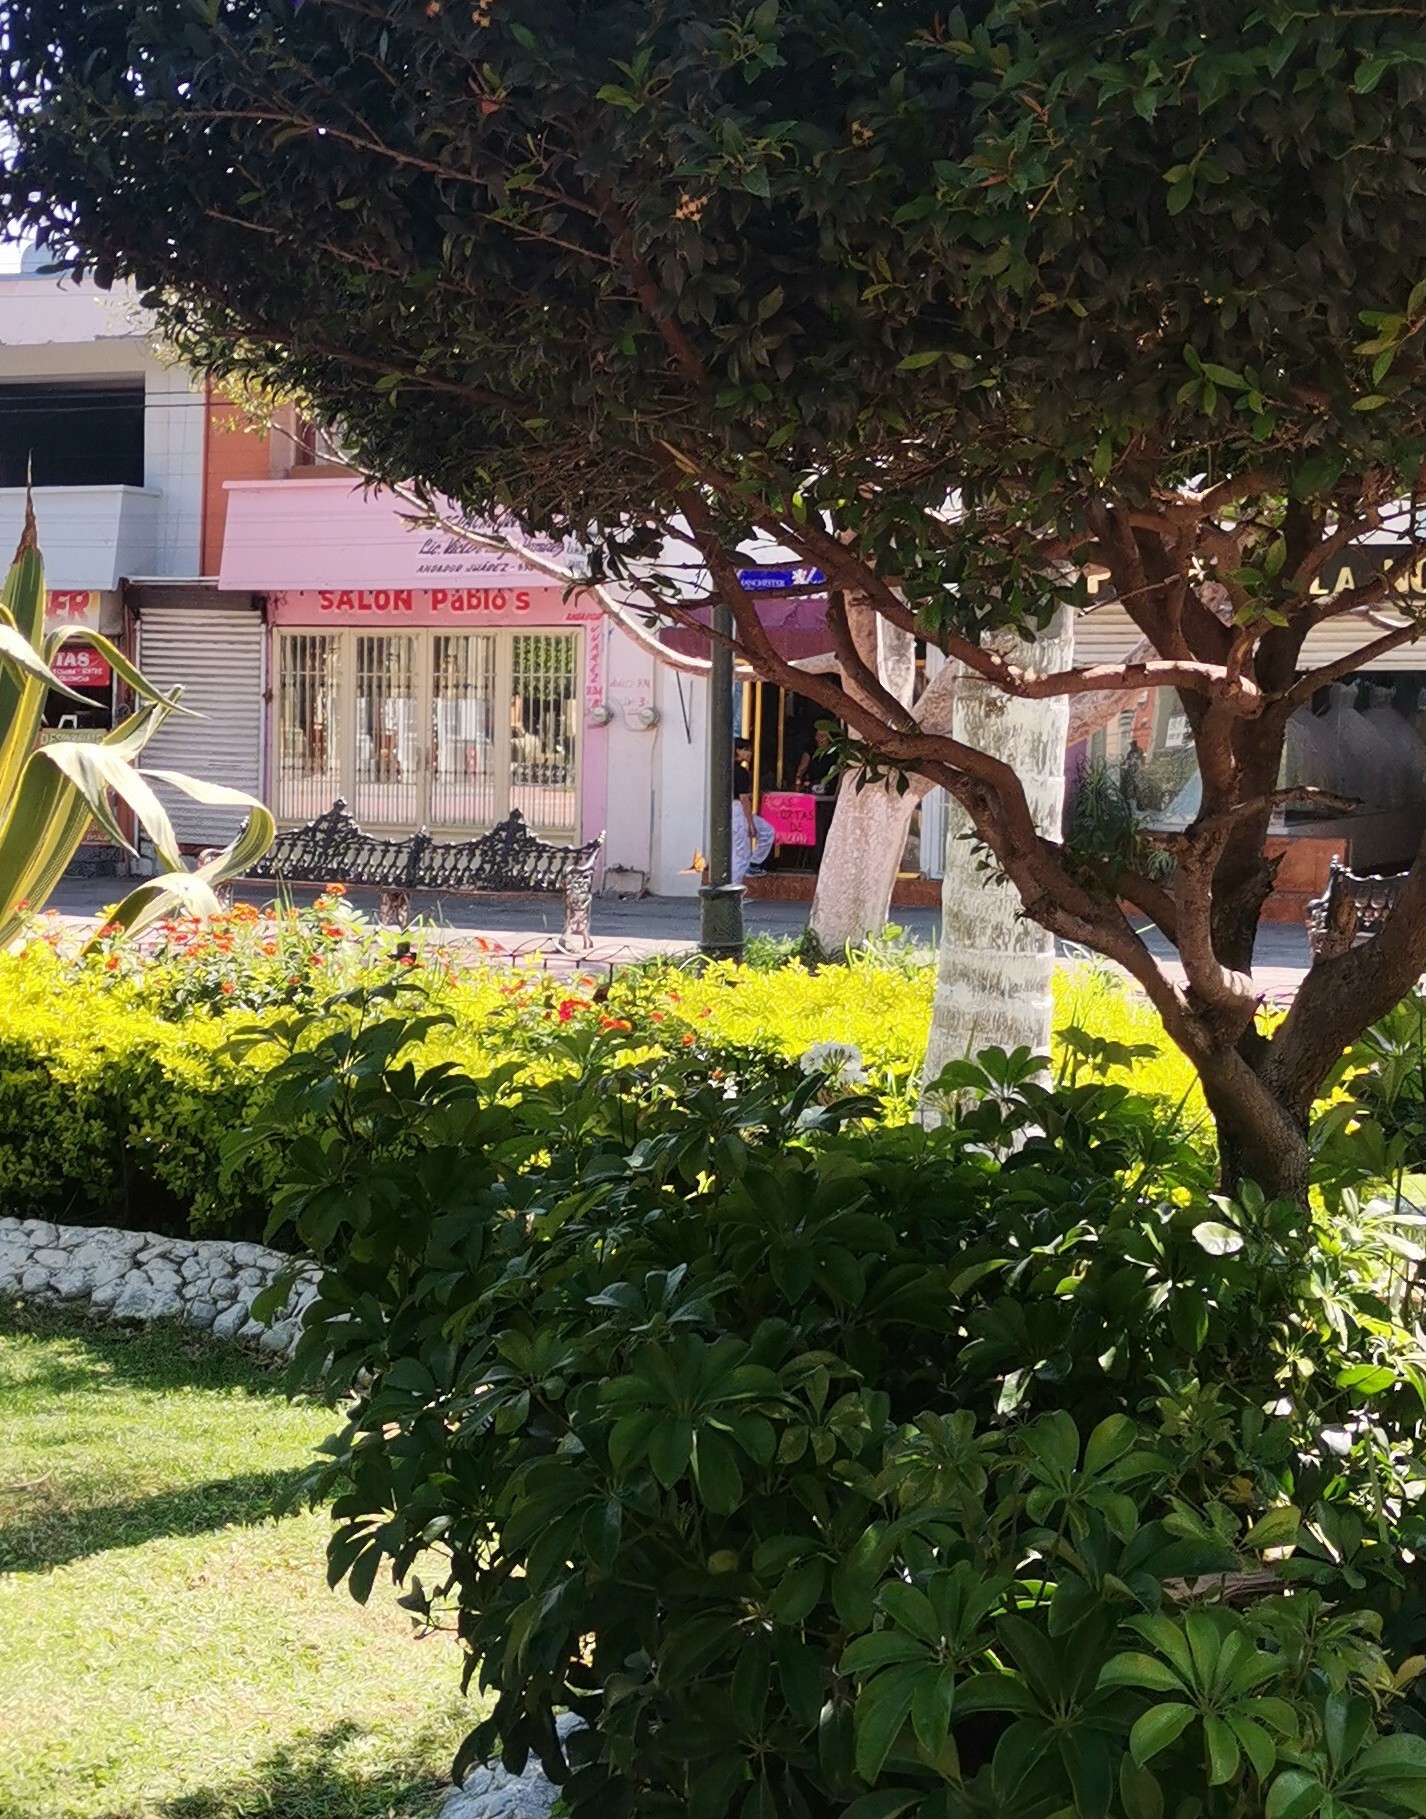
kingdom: Animalia
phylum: Arthropoda
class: Insecta
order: Lepidoptera
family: Nymphalidae
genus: Danaus
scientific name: Danaus plexippus
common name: Monarch
